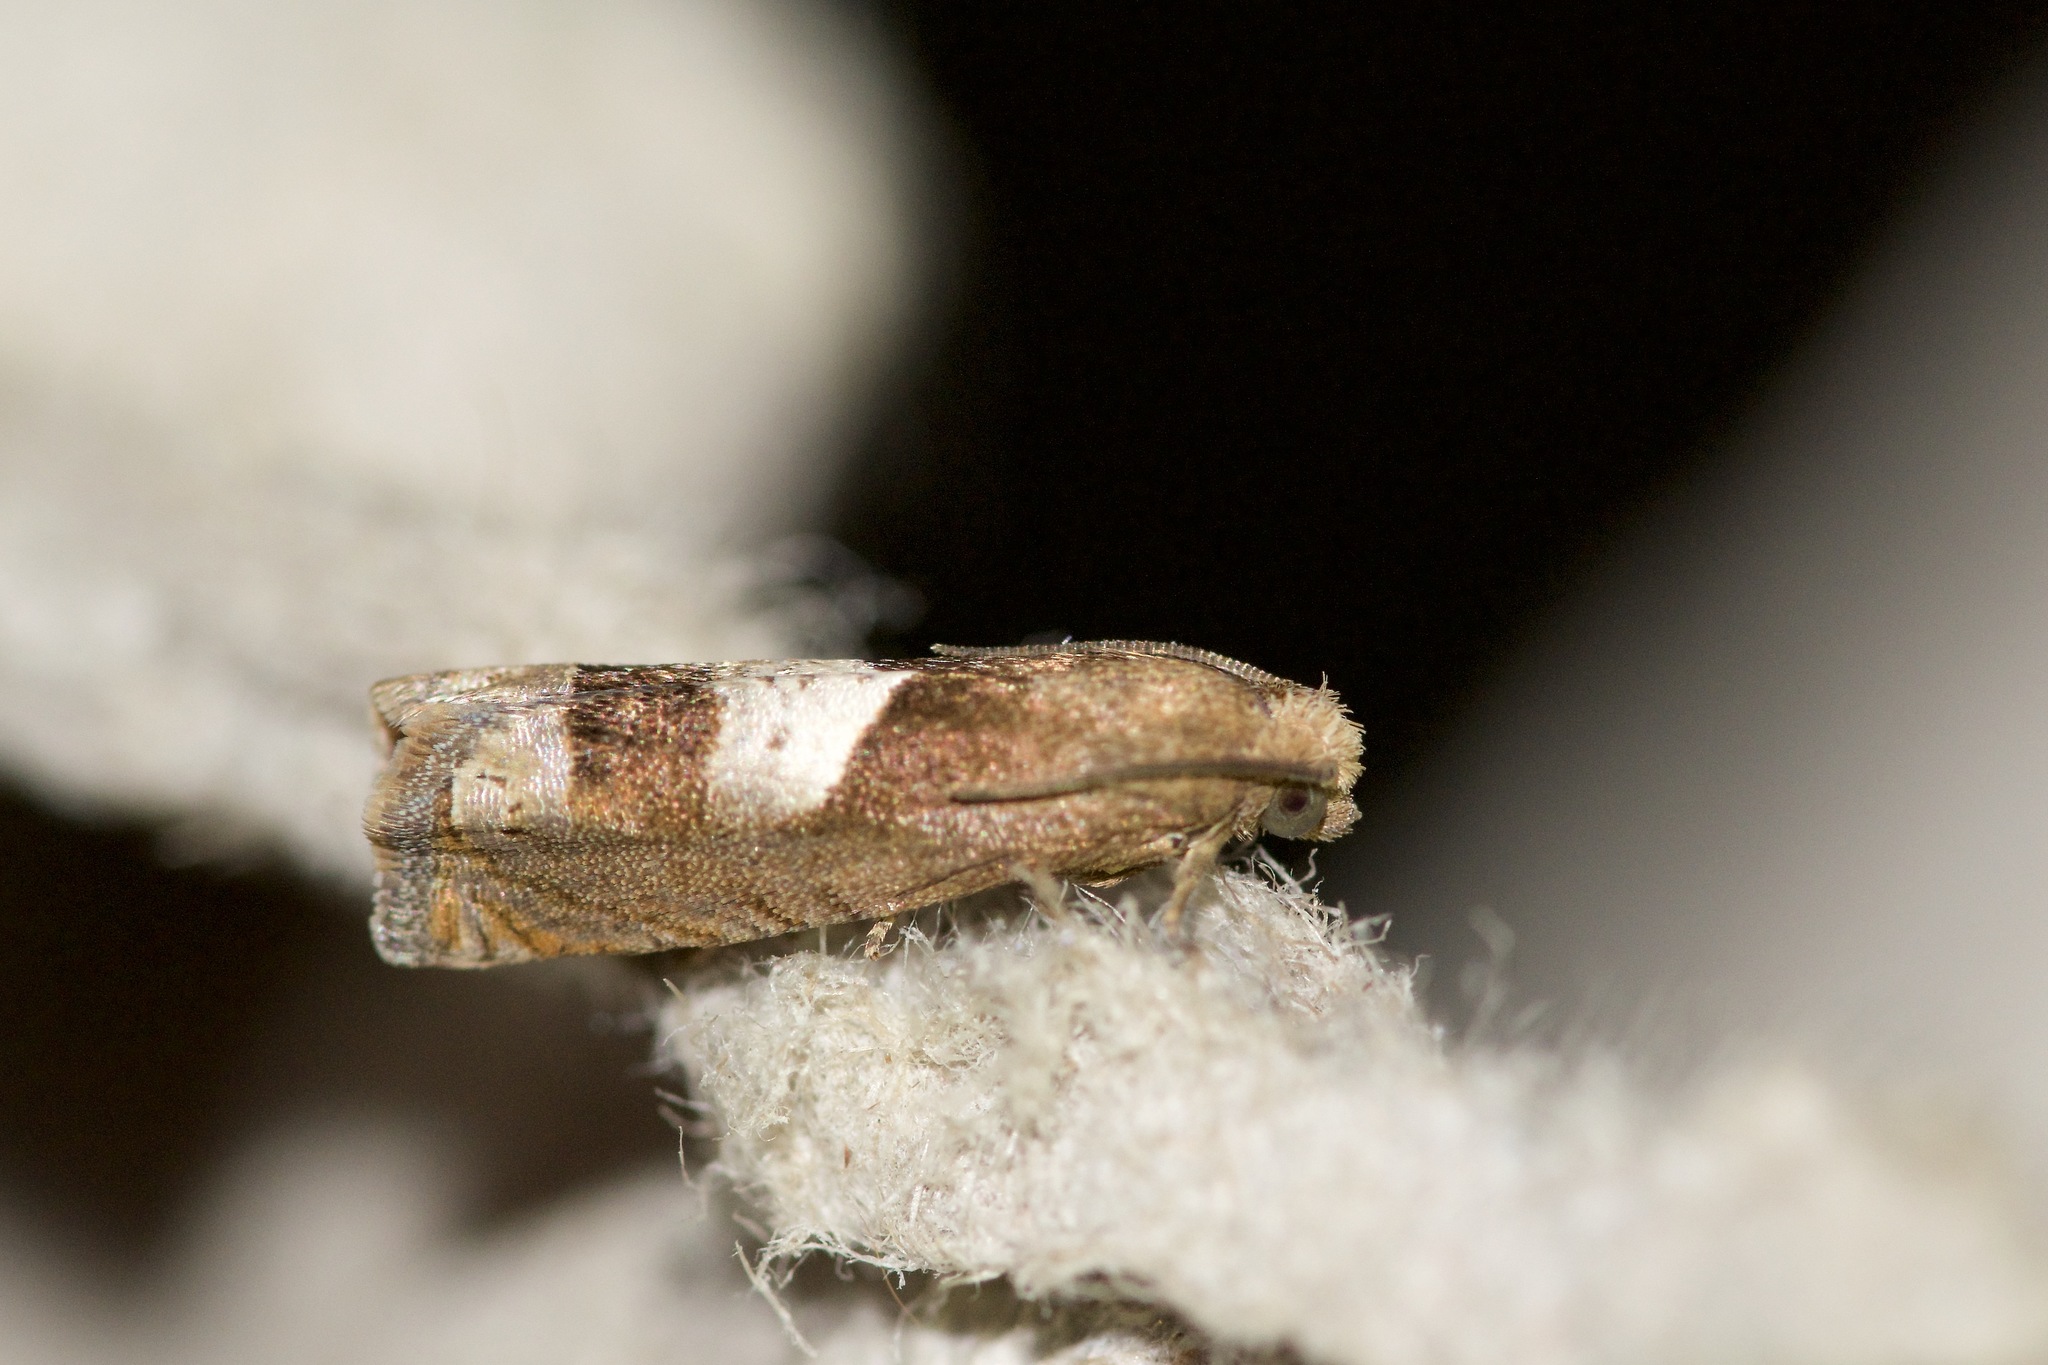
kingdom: Animalia
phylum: Arthropoda
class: Insecta
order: Lepidoptera
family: Tortricidae
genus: Epiblema
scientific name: Epiblema boxcana
